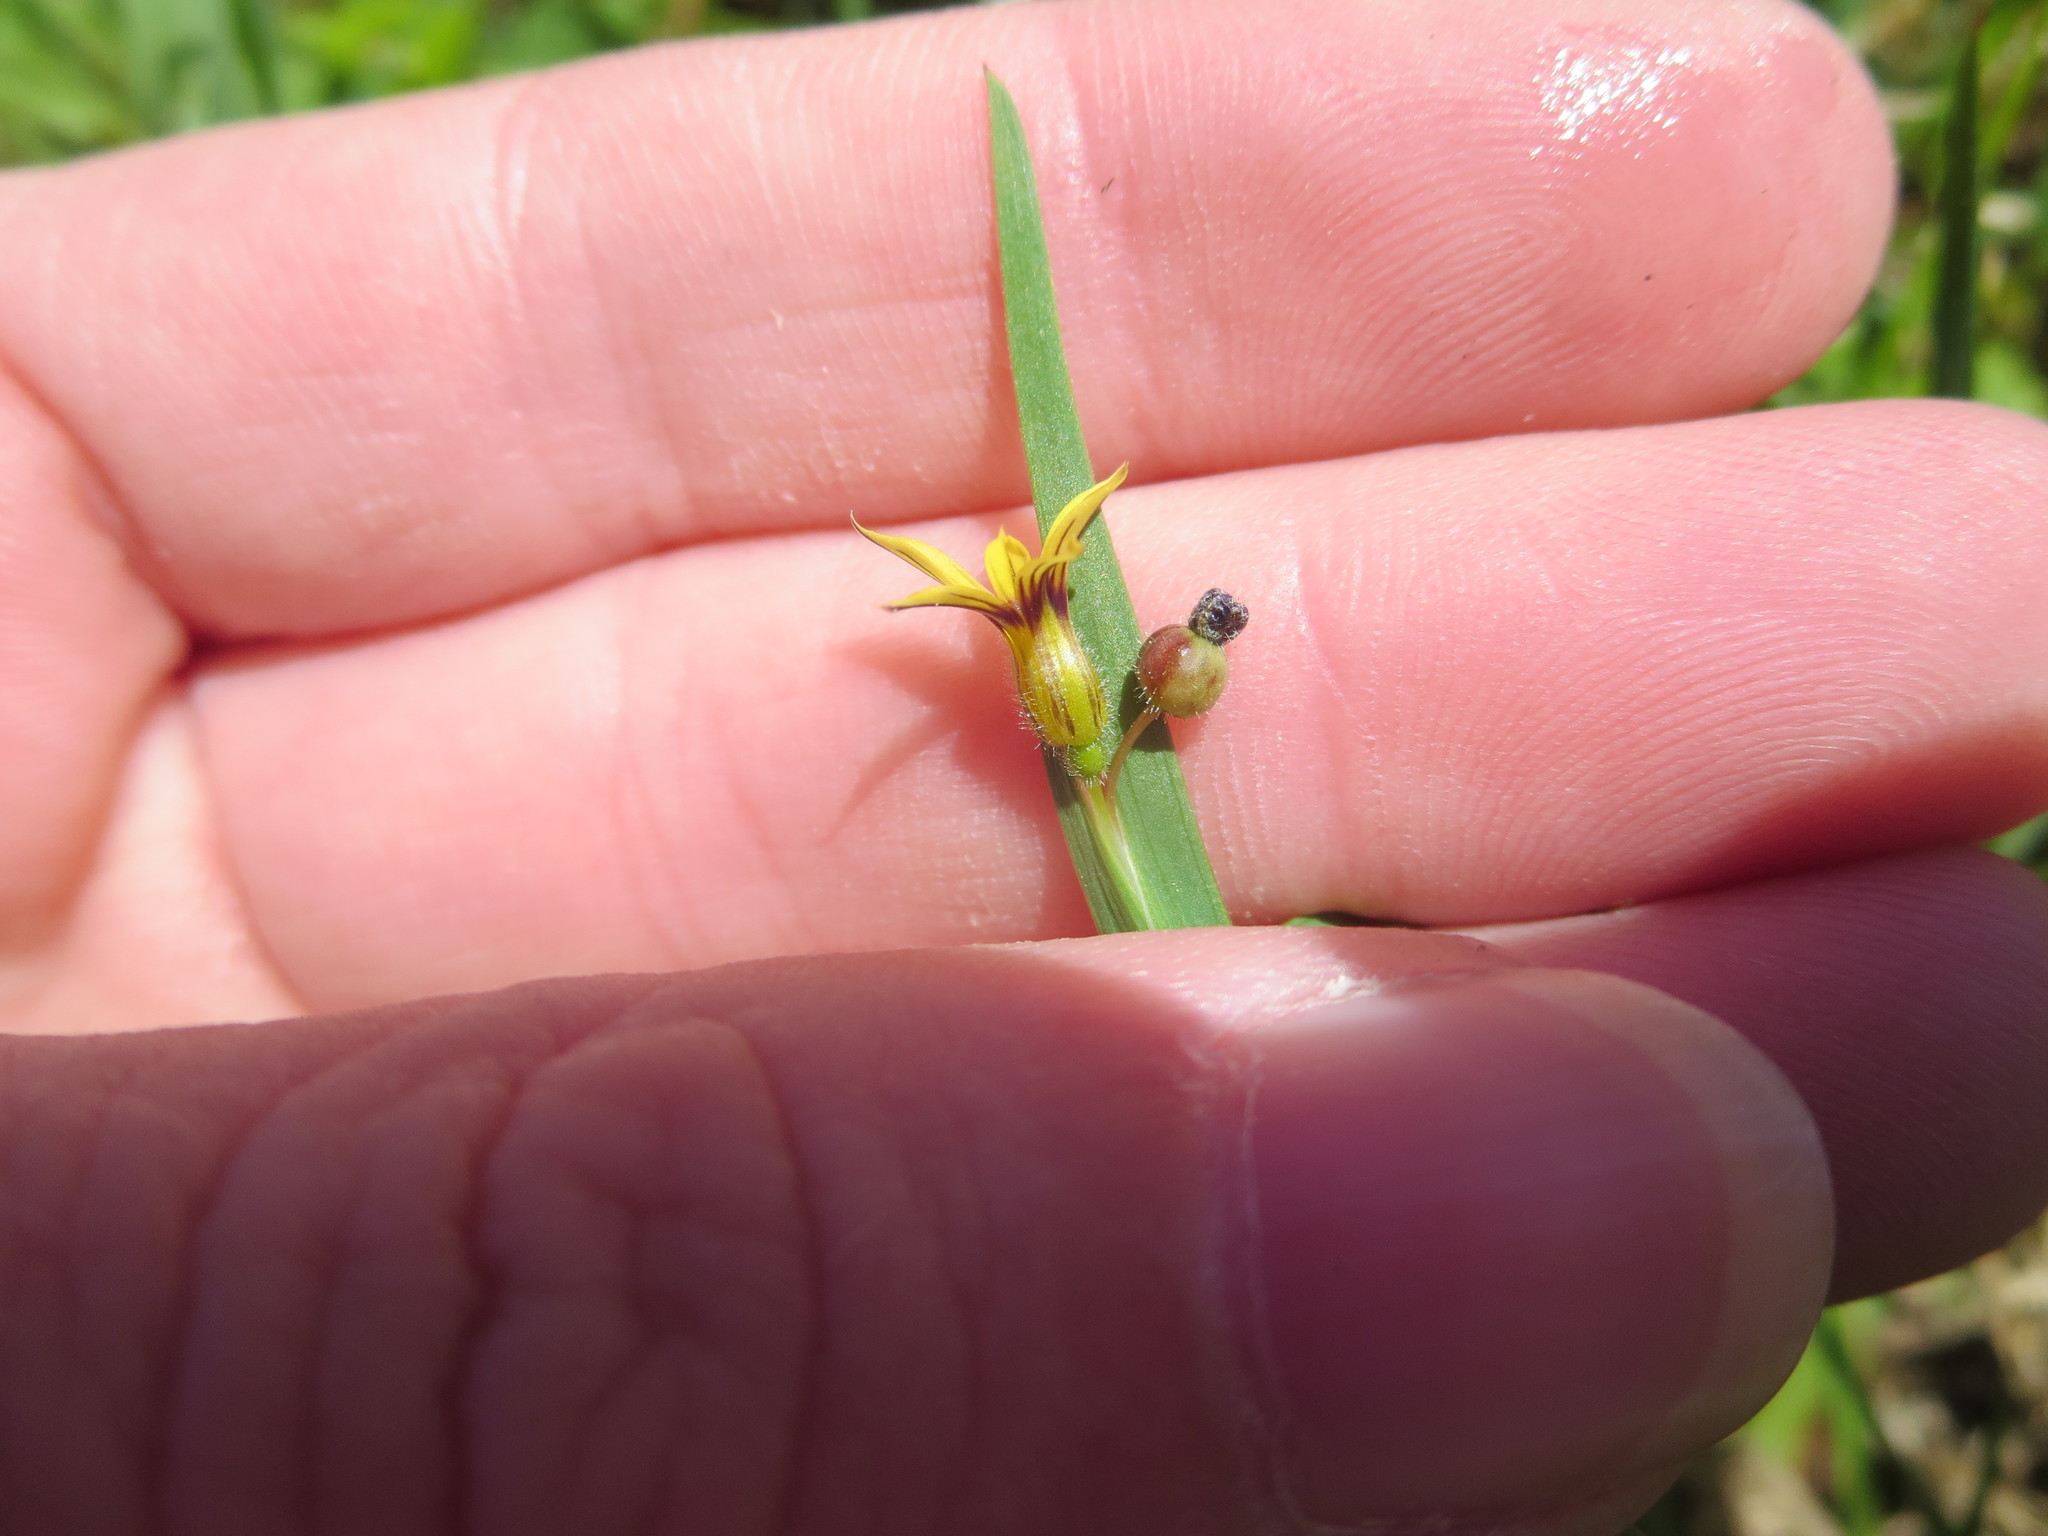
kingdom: Plantae
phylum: Tracheophyta
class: Liliopsida
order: Asparagales
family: Iridaceae
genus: Sisyrinchium
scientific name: Sisyrinchium micranthum
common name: Bermuda pigroot
